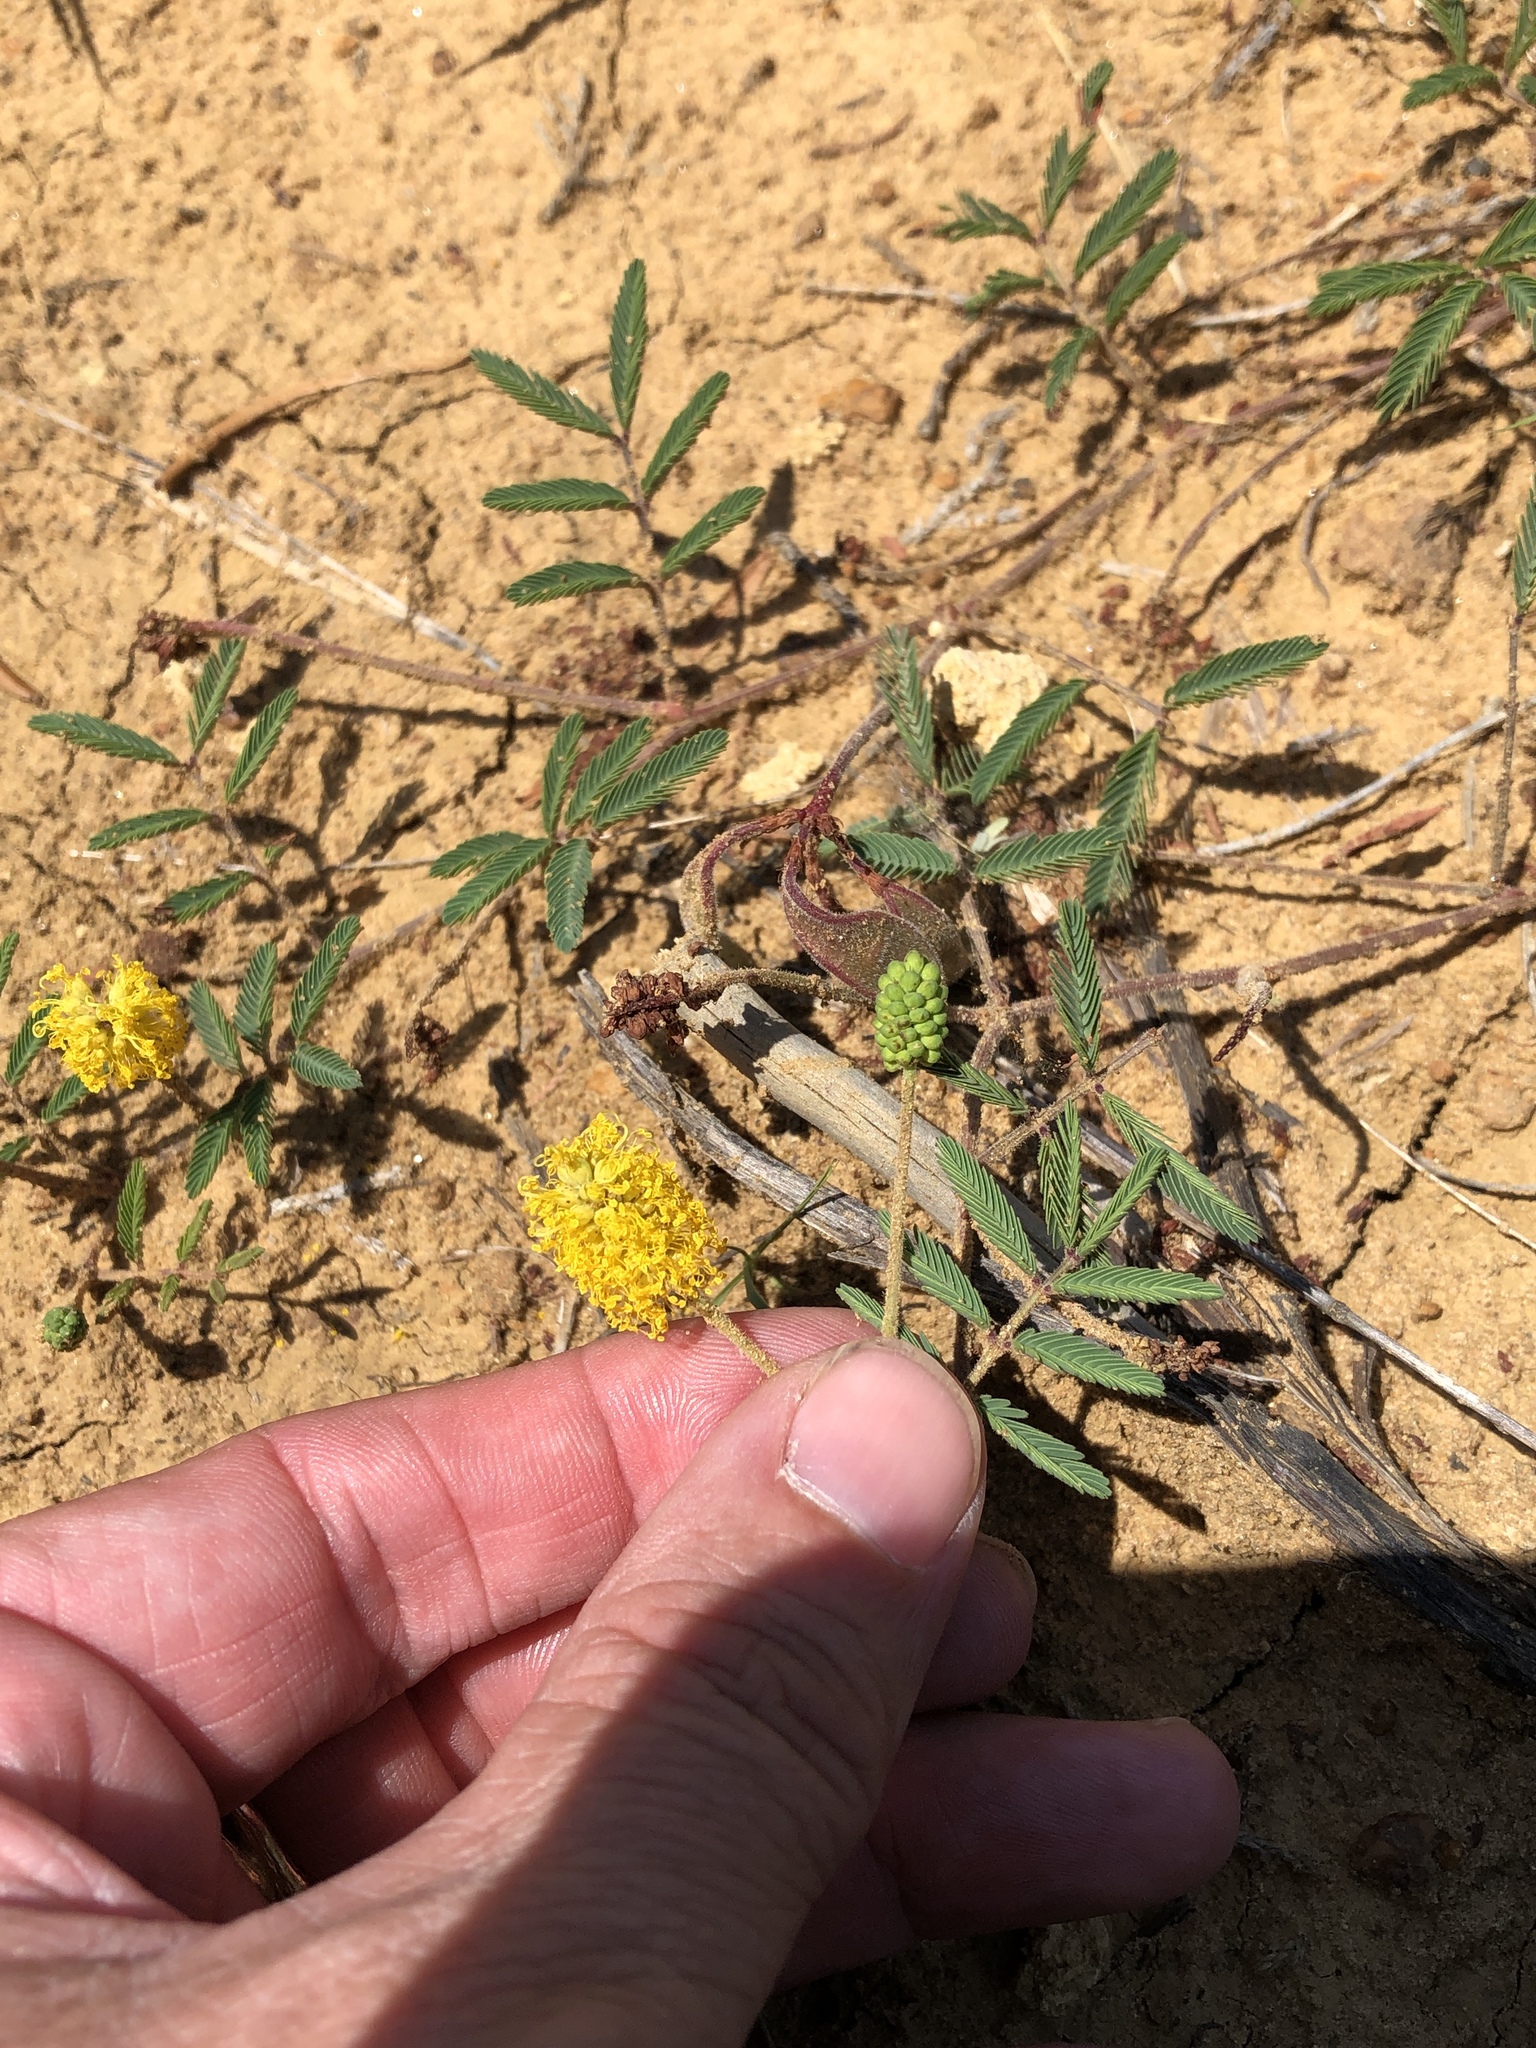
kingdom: Plantae
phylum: Tracheophyta
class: Magnoliopsida
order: Fabales
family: Fabaceae
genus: Neptunia
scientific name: Neptunia lutea
